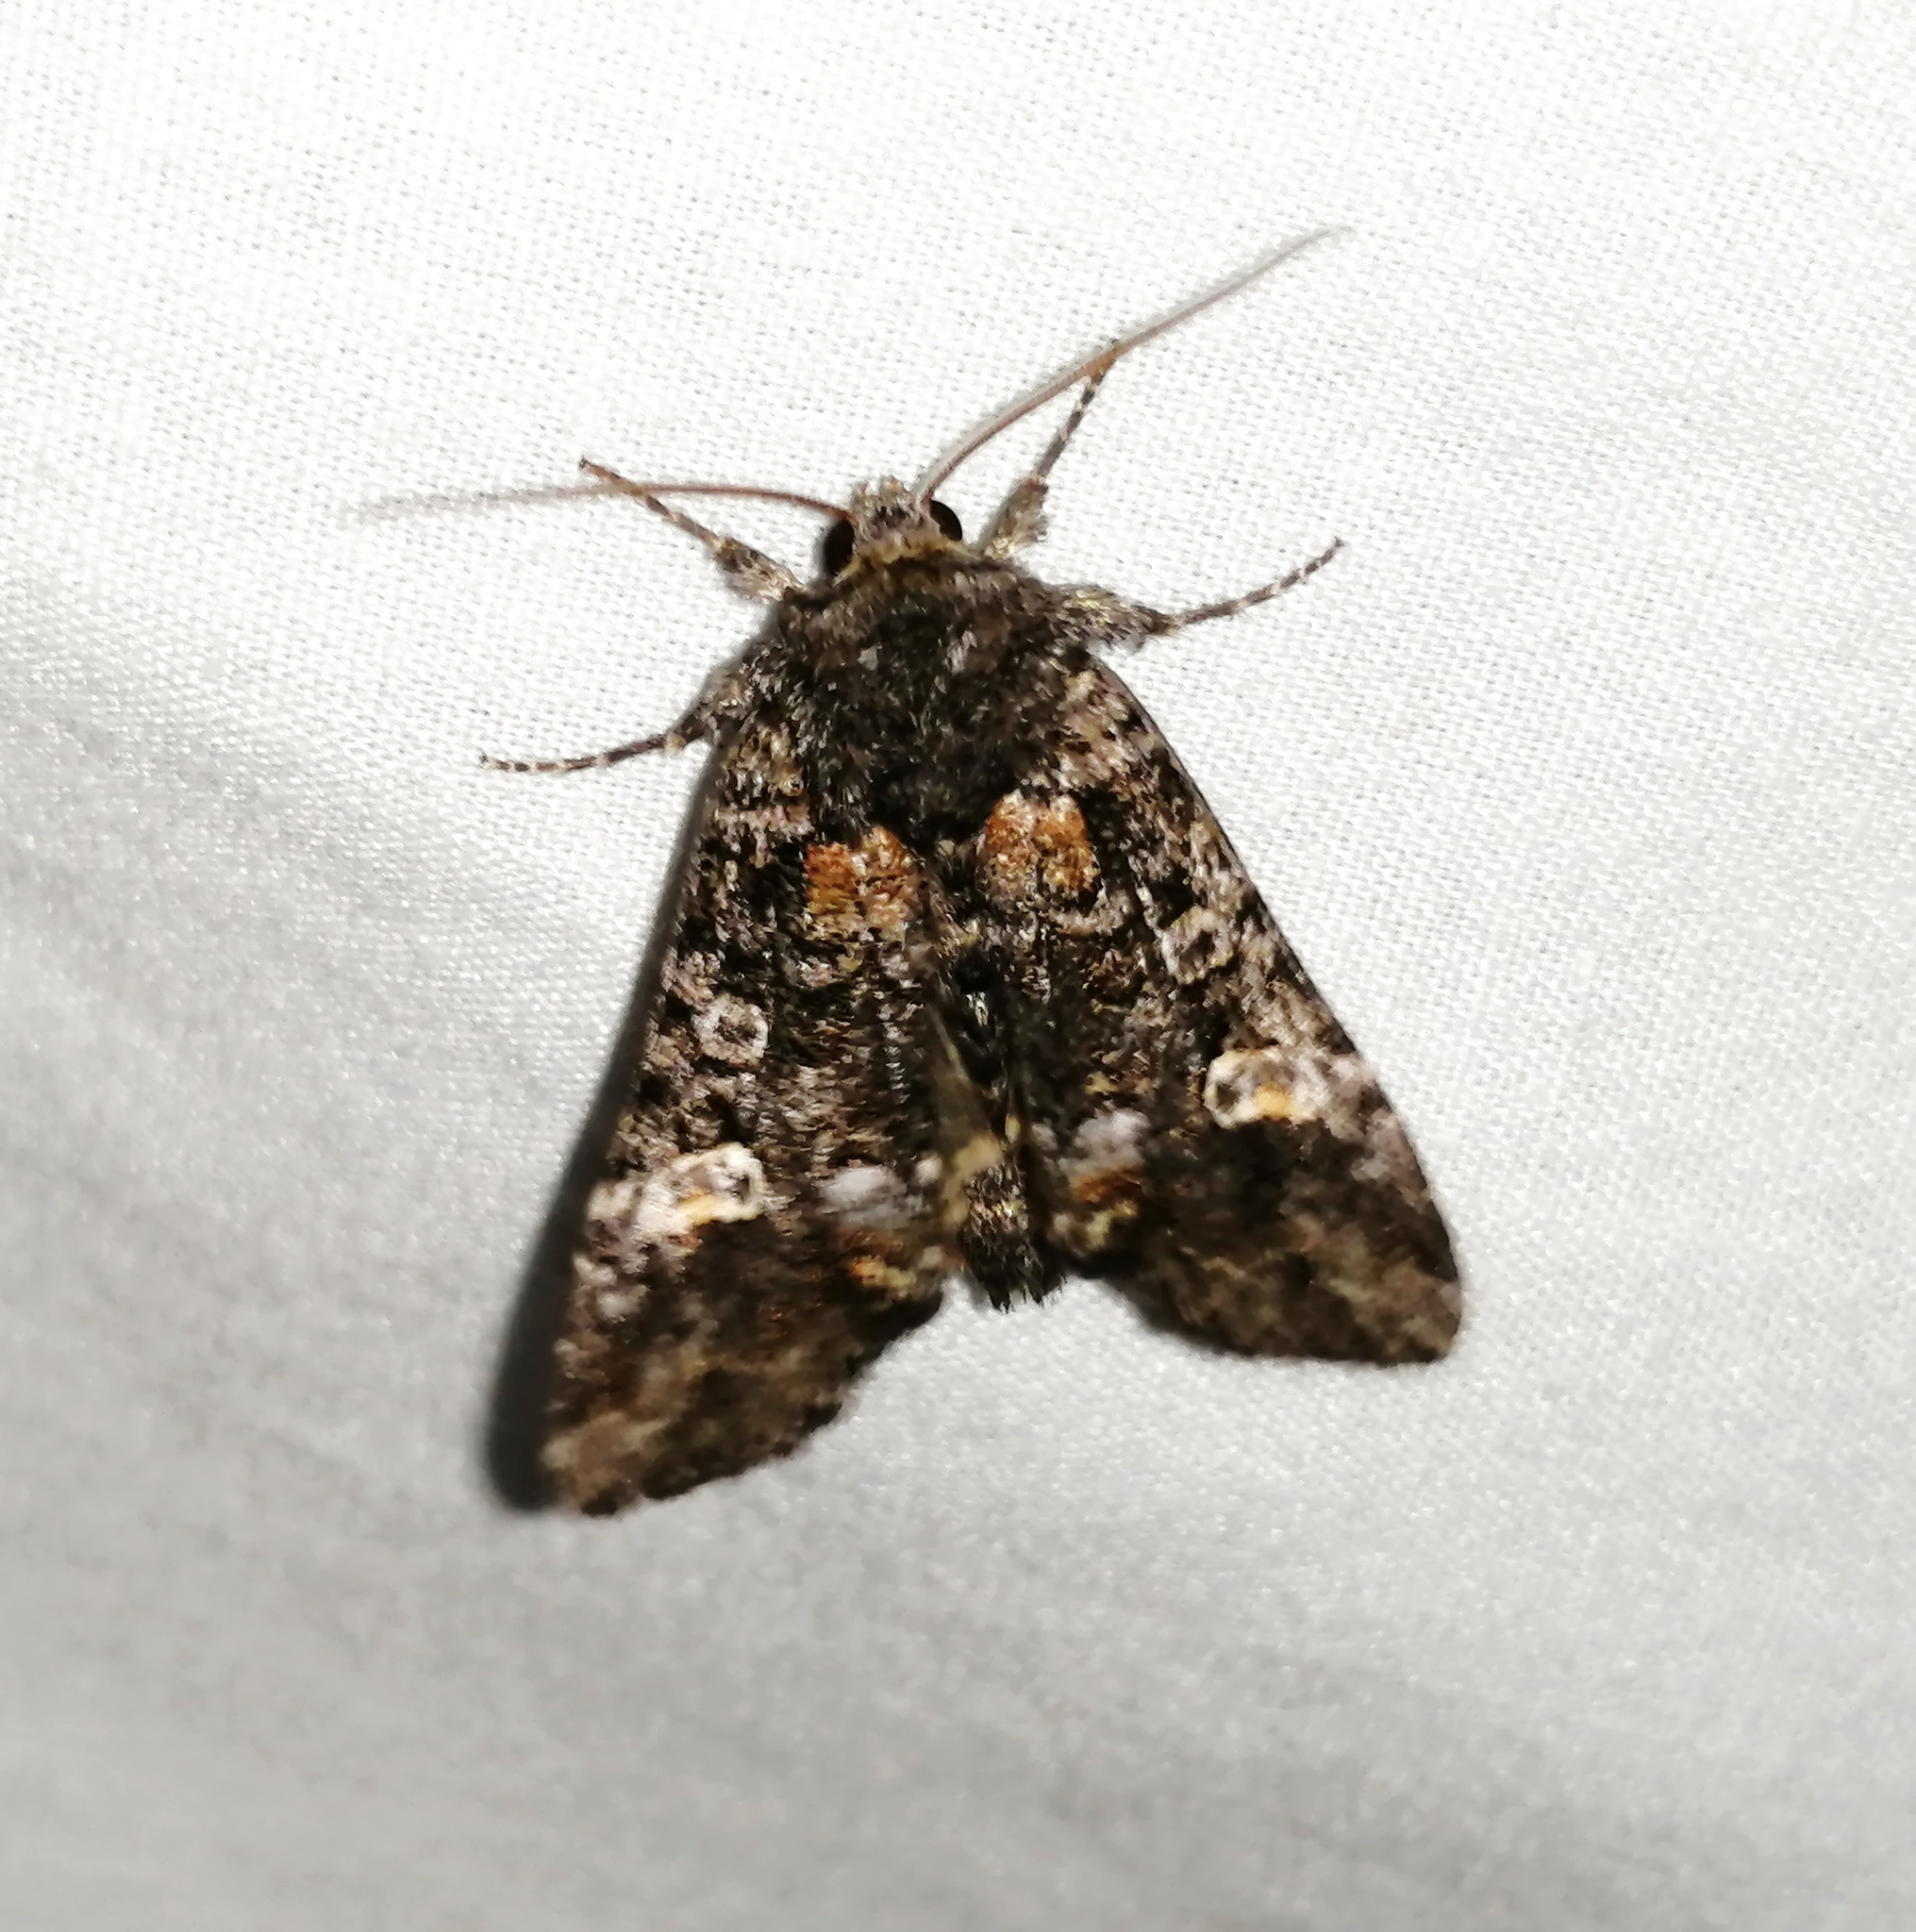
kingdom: Animalia
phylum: Arthropoda
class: Insecta
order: Lepidoptera
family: Noctuidae
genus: Spiramater
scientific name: Spiramater lutra
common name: Otter spiramater moth
